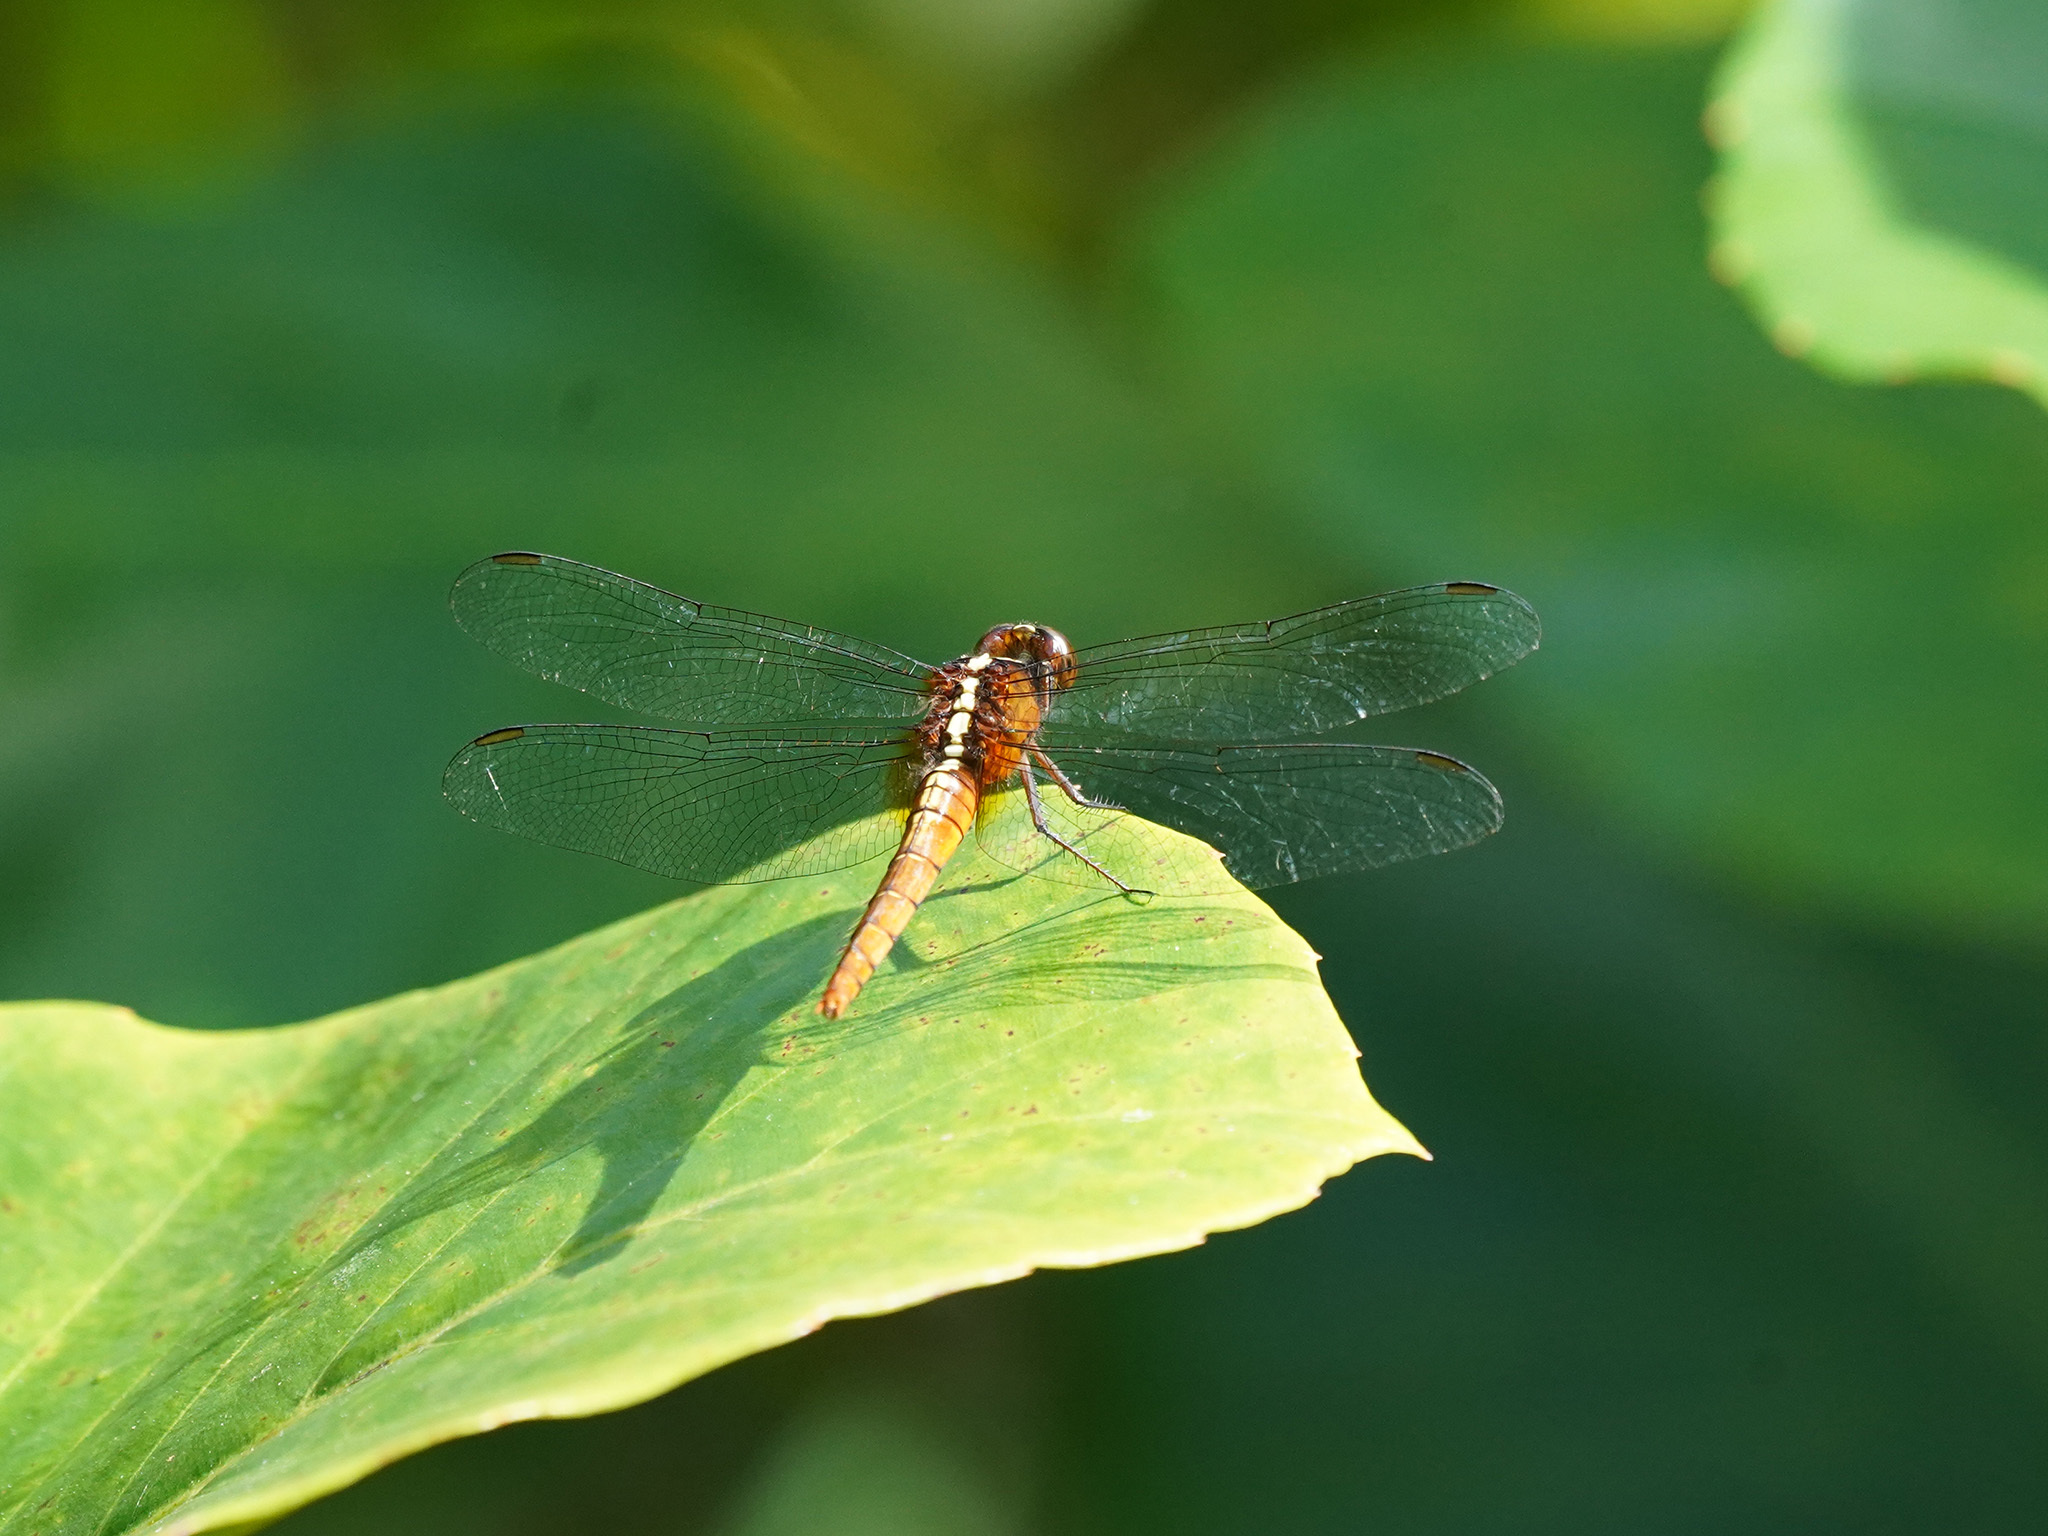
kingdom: Animalia
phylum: Arthropoda
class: Insecta
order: Odonata
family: Libellulidae
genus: Rhodothemis
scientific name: Rhodothemis rufa
